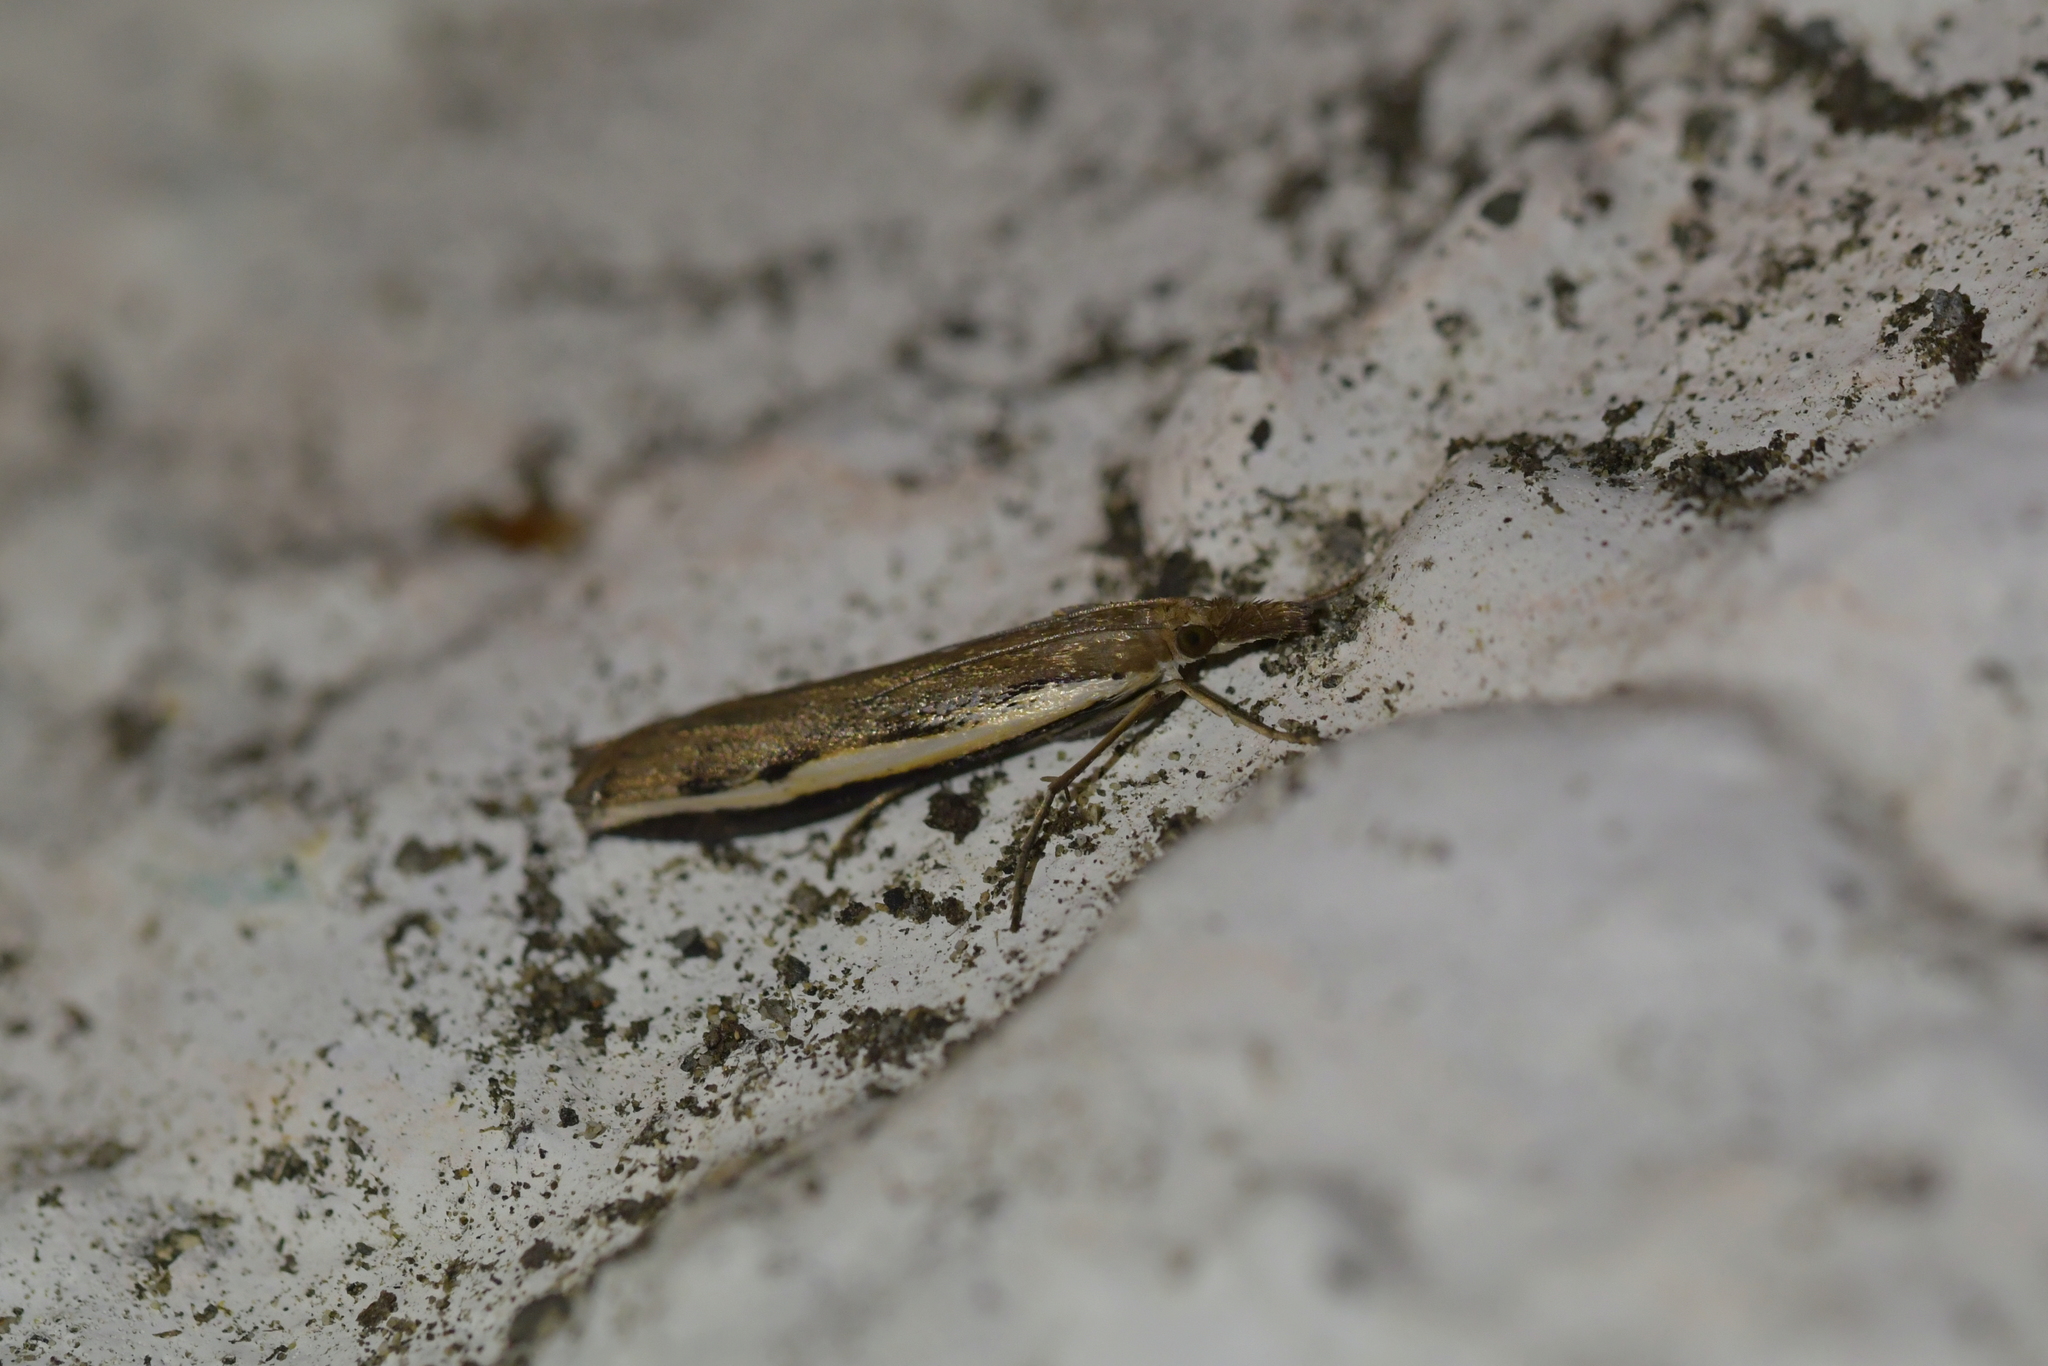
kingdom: Animalia
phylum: Arthropoda
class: Insecta
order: Lepidoptera
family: Crambidae
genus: Orocrambus
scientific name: Orocrambus flexuosellus
